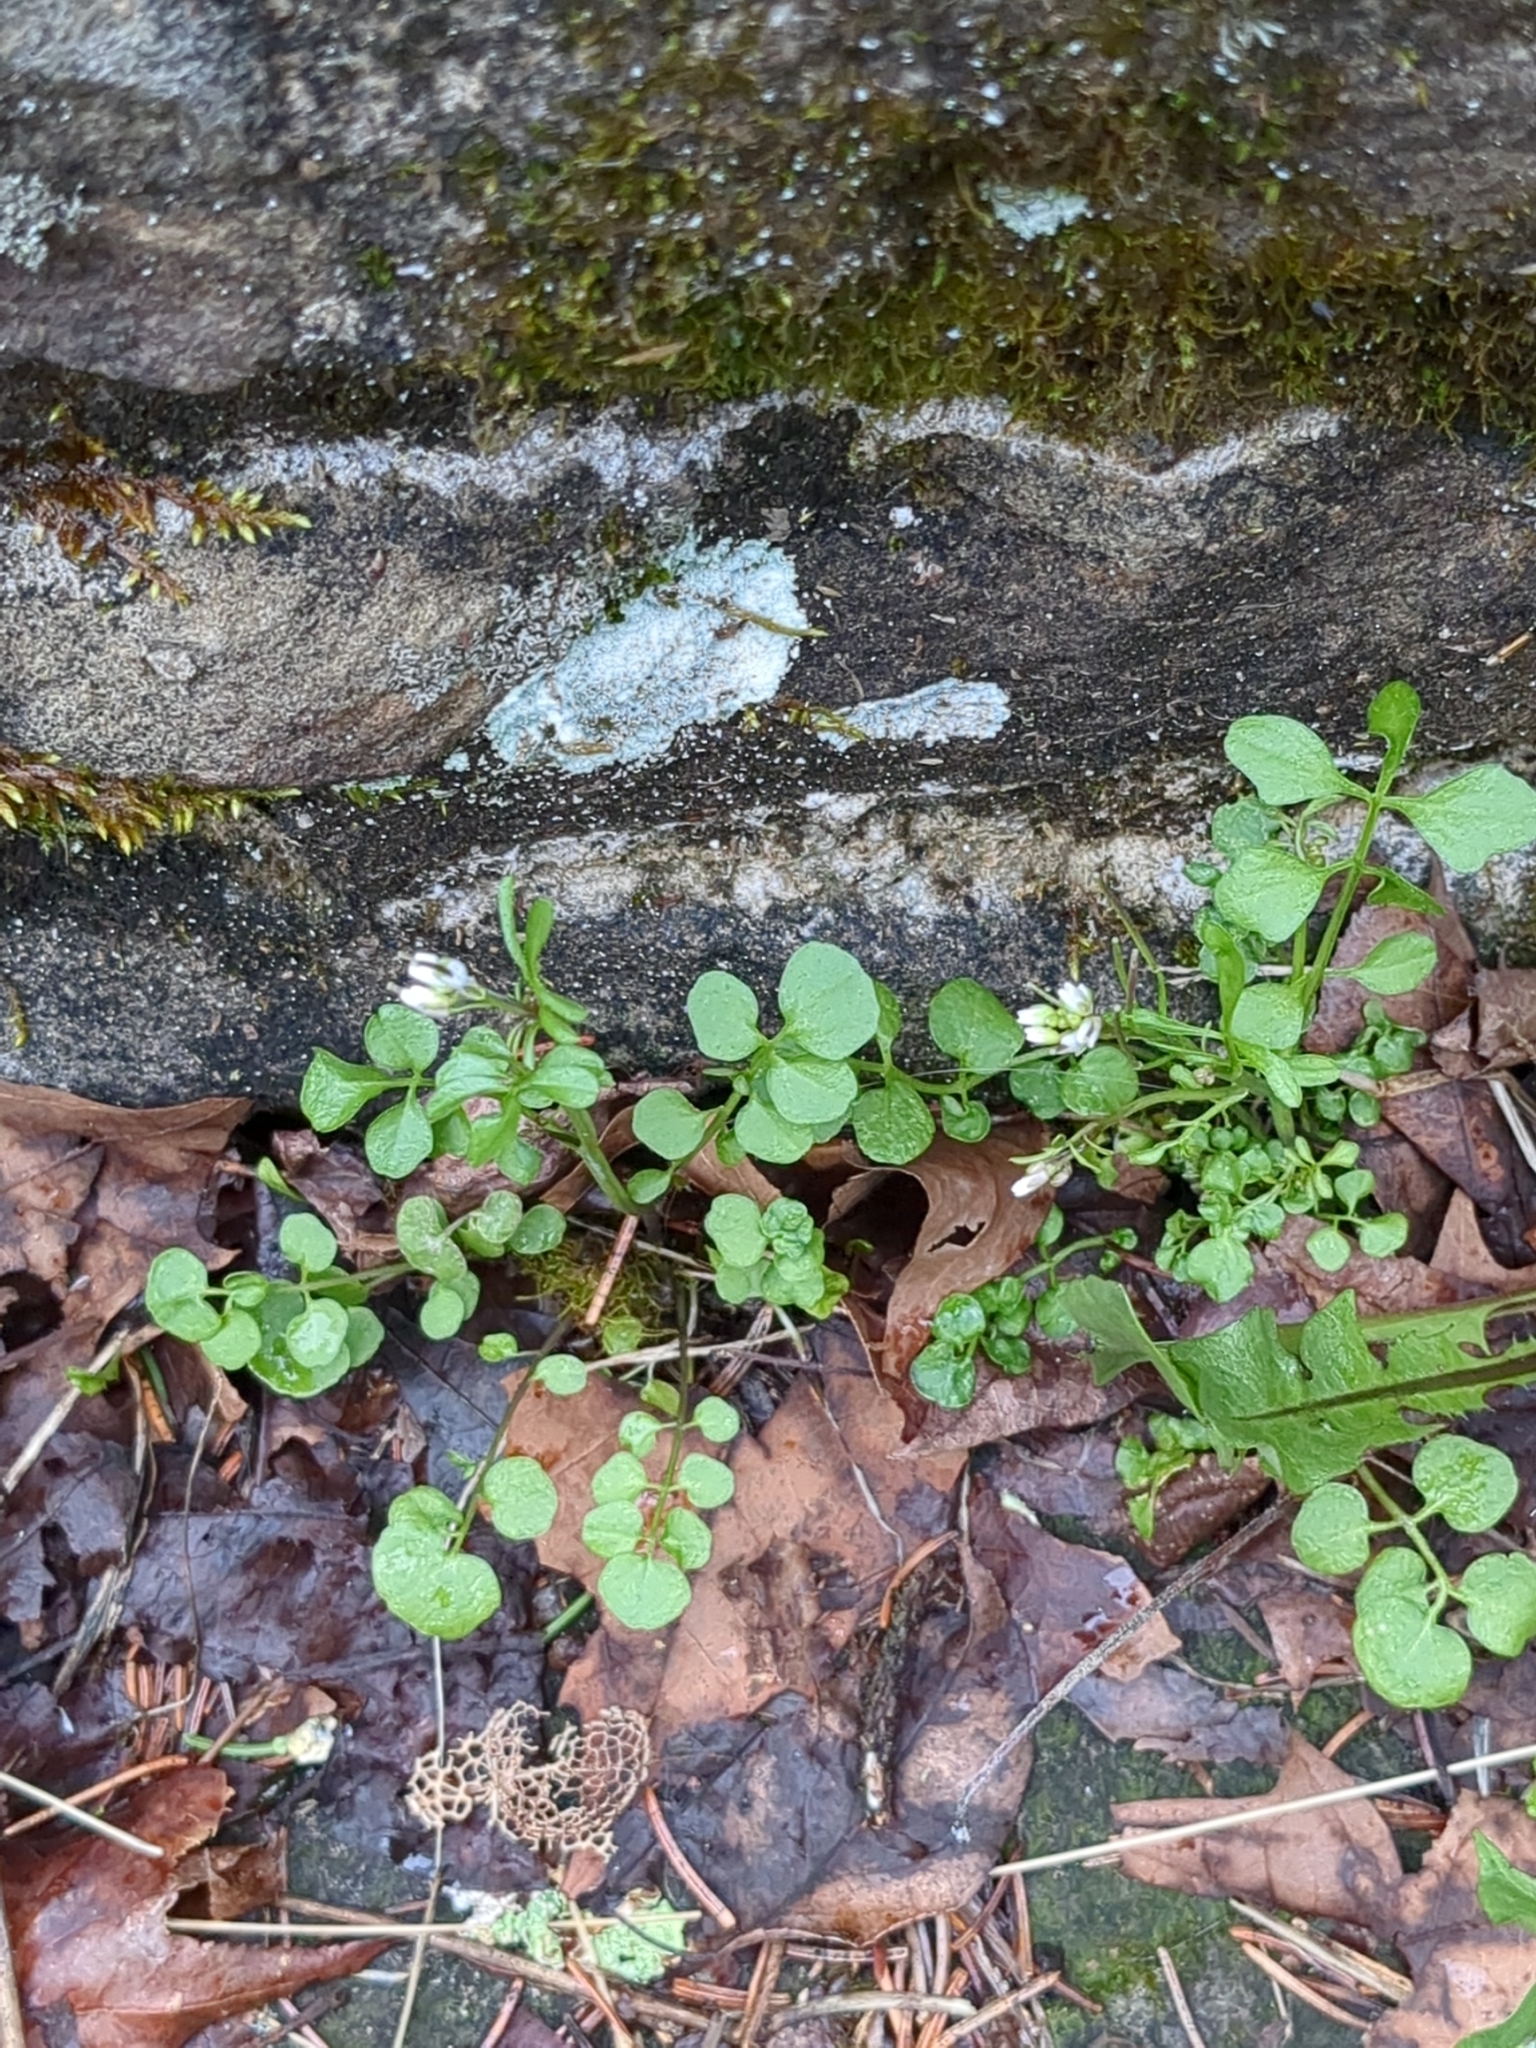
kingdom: Plantae
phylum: Tracheophyta
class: Magnoliopsida
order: Brassicales
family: Brassicaceae
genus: Cardamine
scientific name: Cardamine hirsuta
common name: Hairy bittercress
